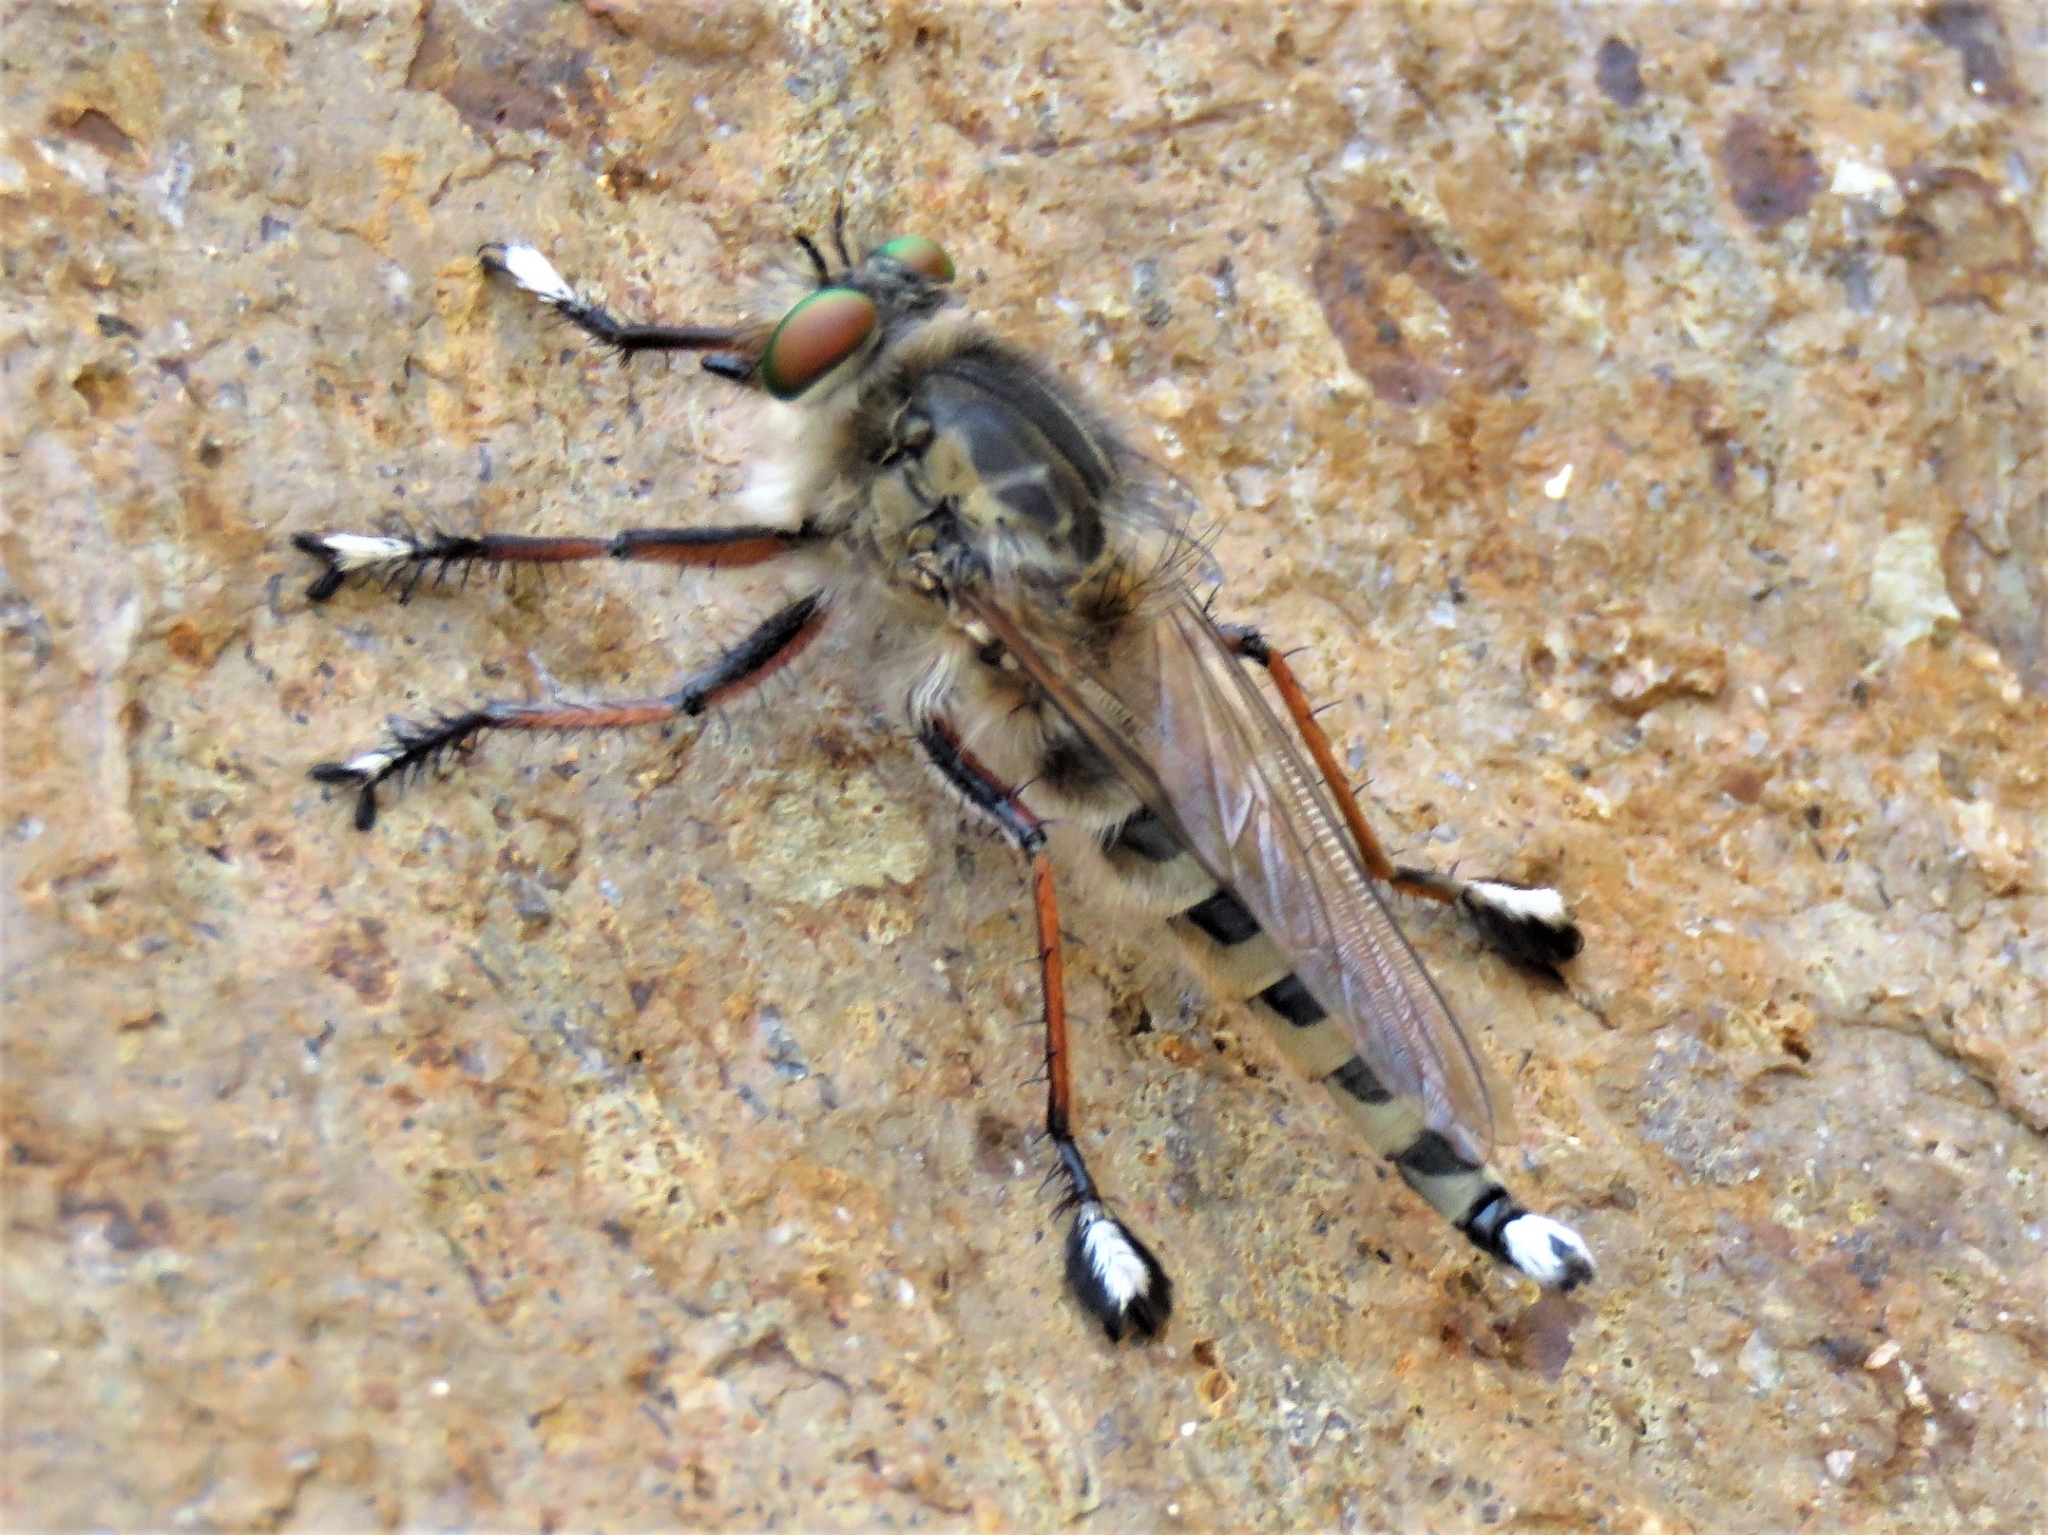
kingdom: Animalia
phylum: Arthropoda
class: Insecta
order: Diptera
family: Asilidae
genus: Promachus
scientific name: Promachus gomerae
